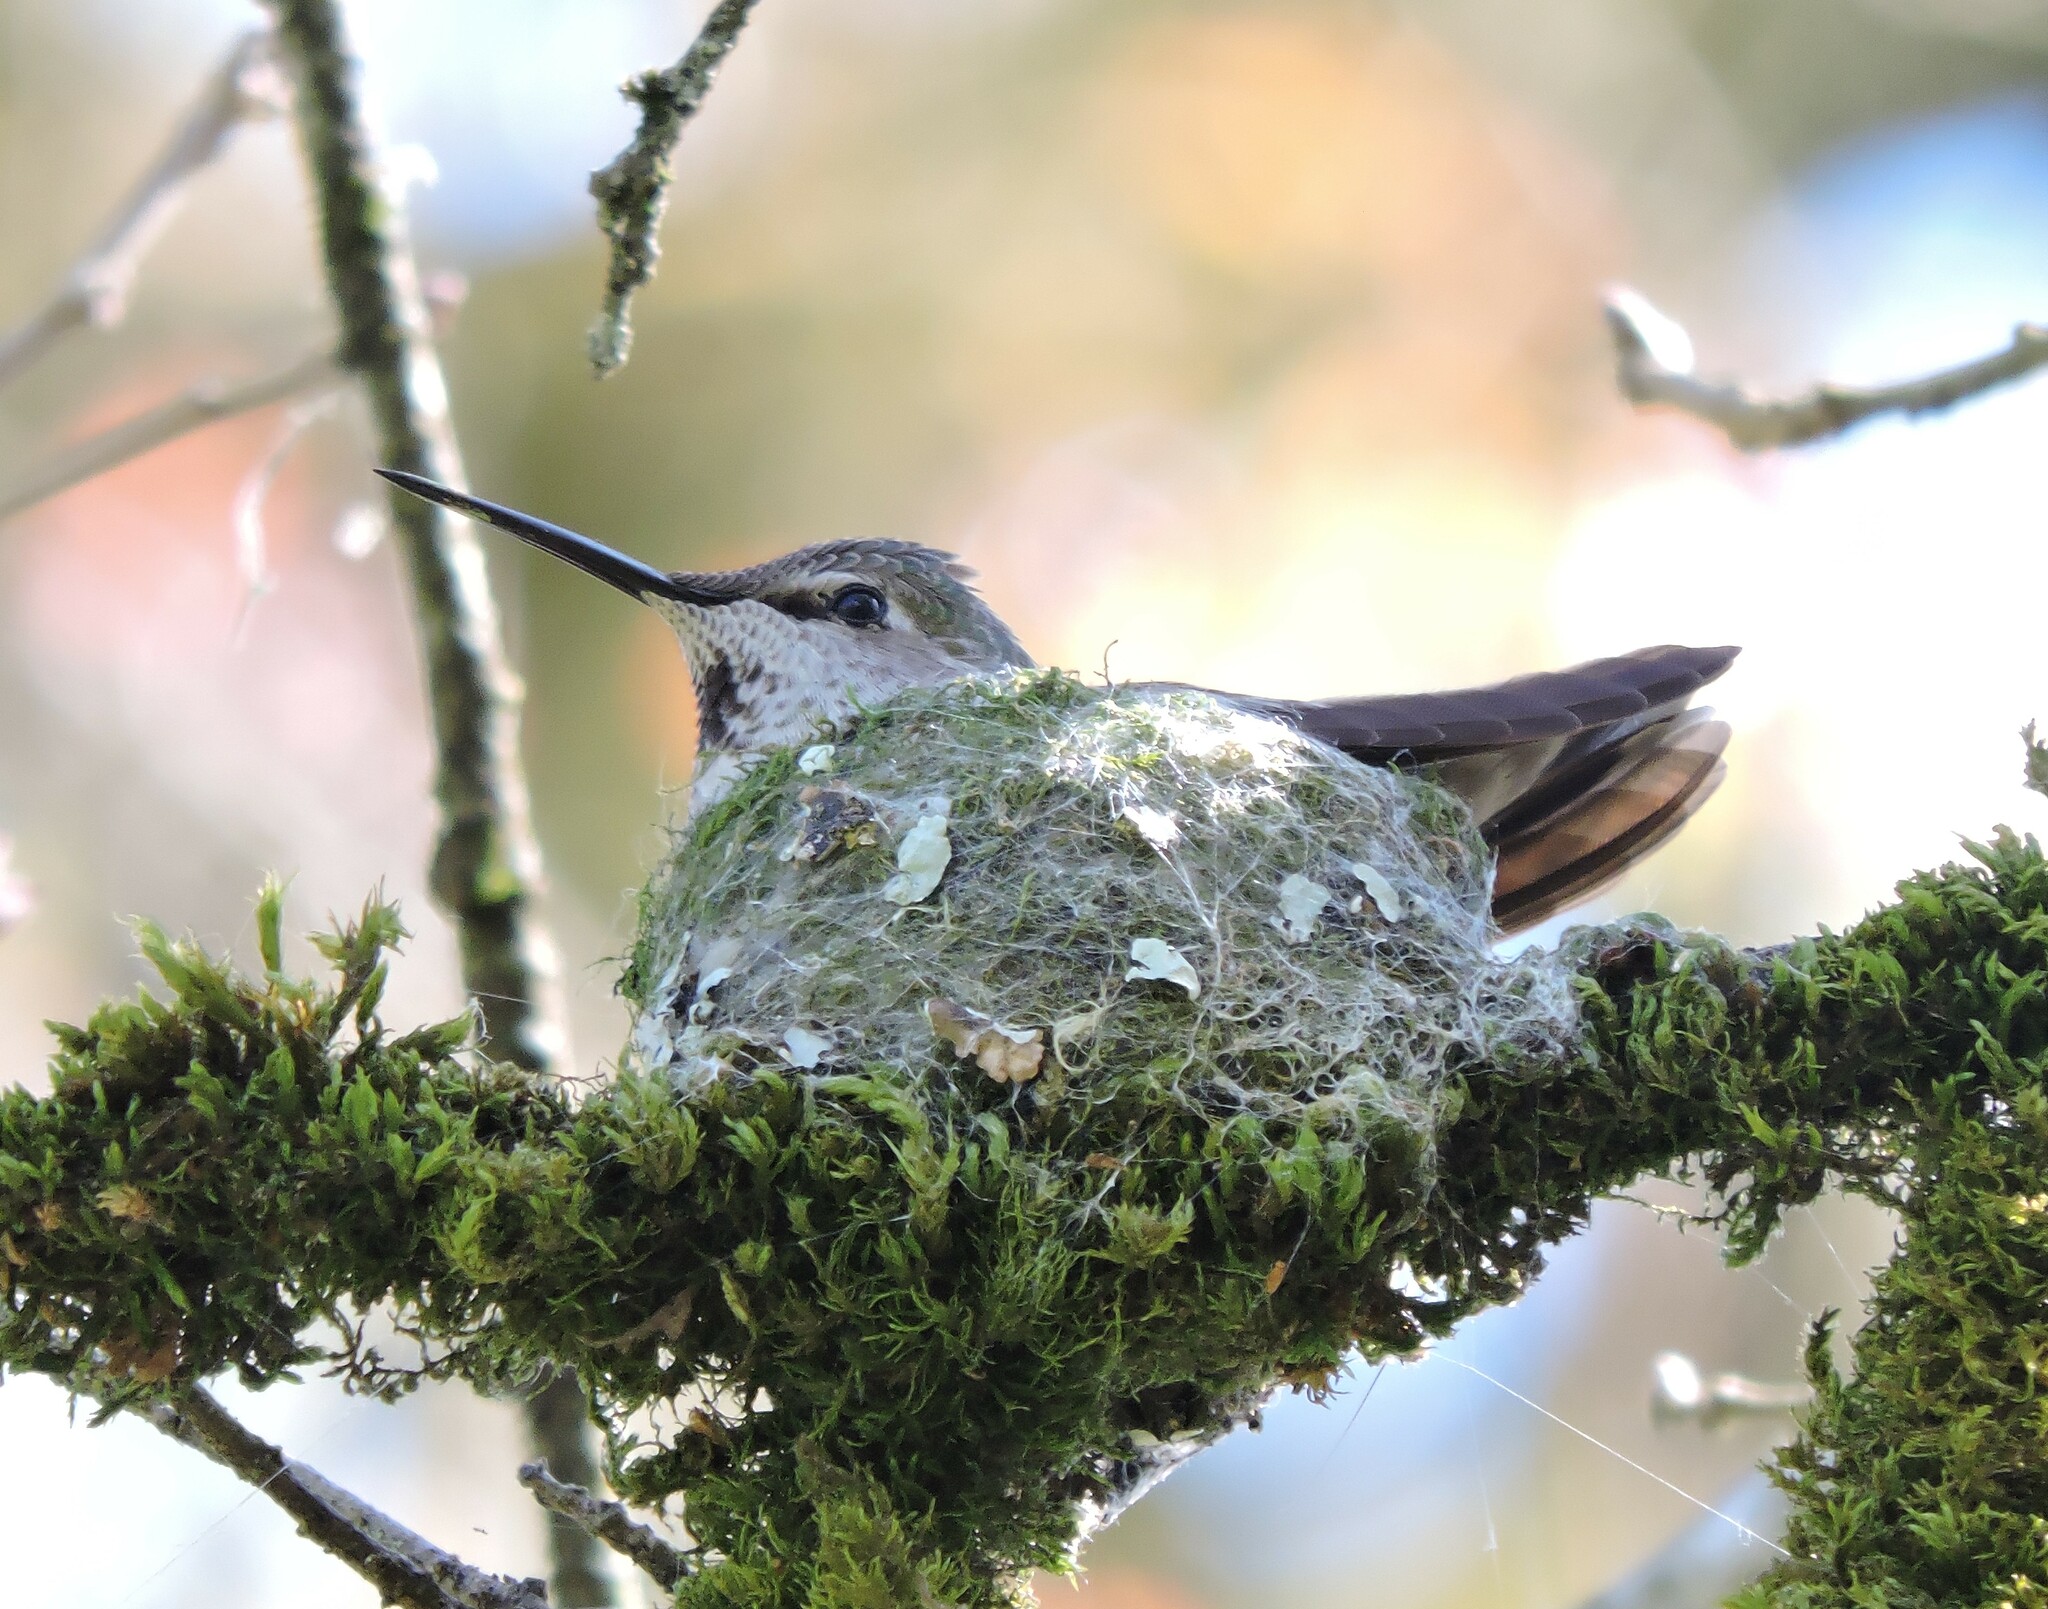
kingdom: Animalia
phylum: Chordata
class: Aves
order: Apodiformes
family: Trochilidae
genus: Calypte
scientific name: Calypte anna
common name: Anna's hummingbird
